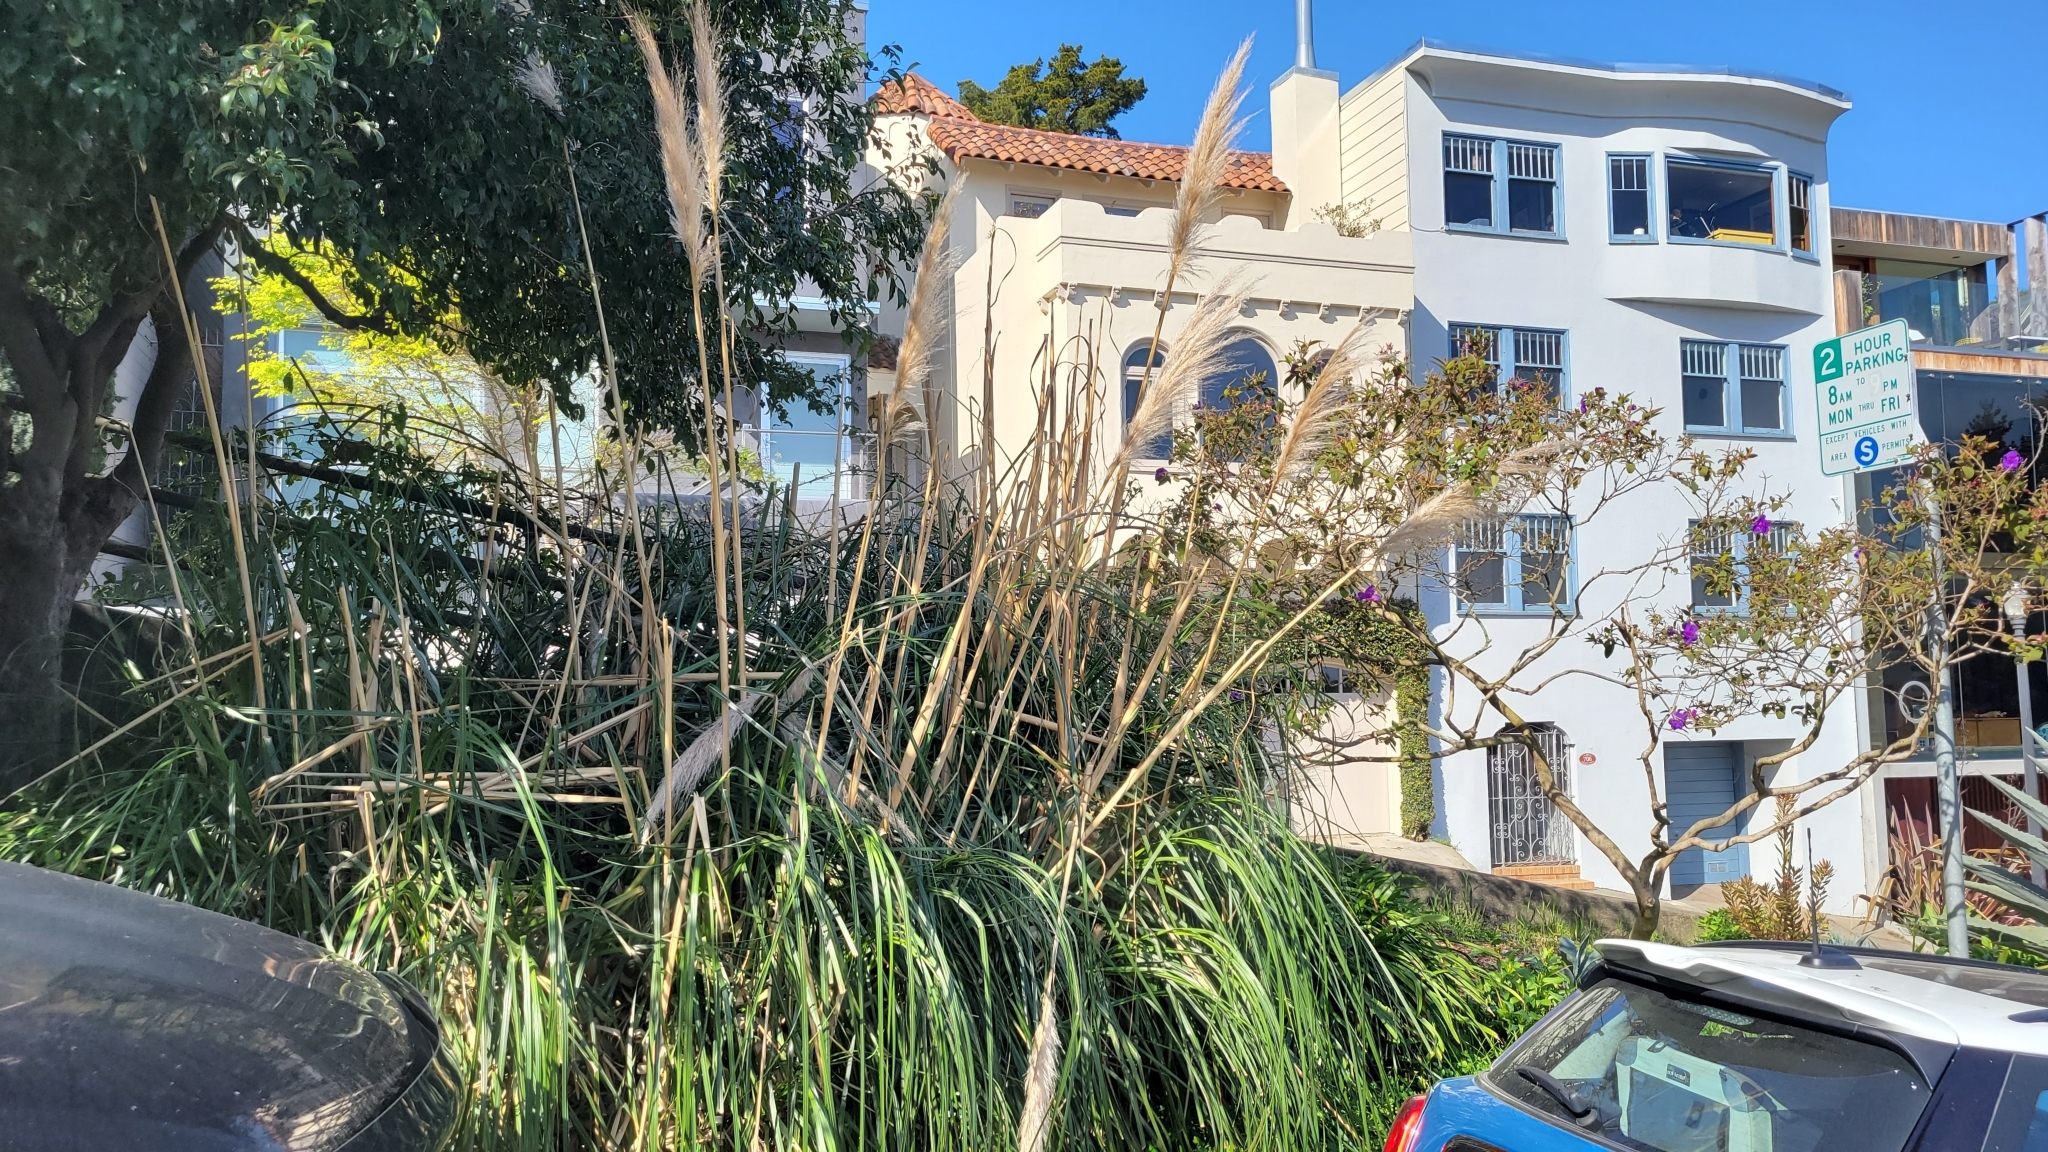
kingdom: Plantae
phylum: Tracheophyta
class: Liliopsida
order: Poales
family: Poaceae
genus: Cortaderia
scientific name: Cortaderia jubata
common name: Purple pampas grass
